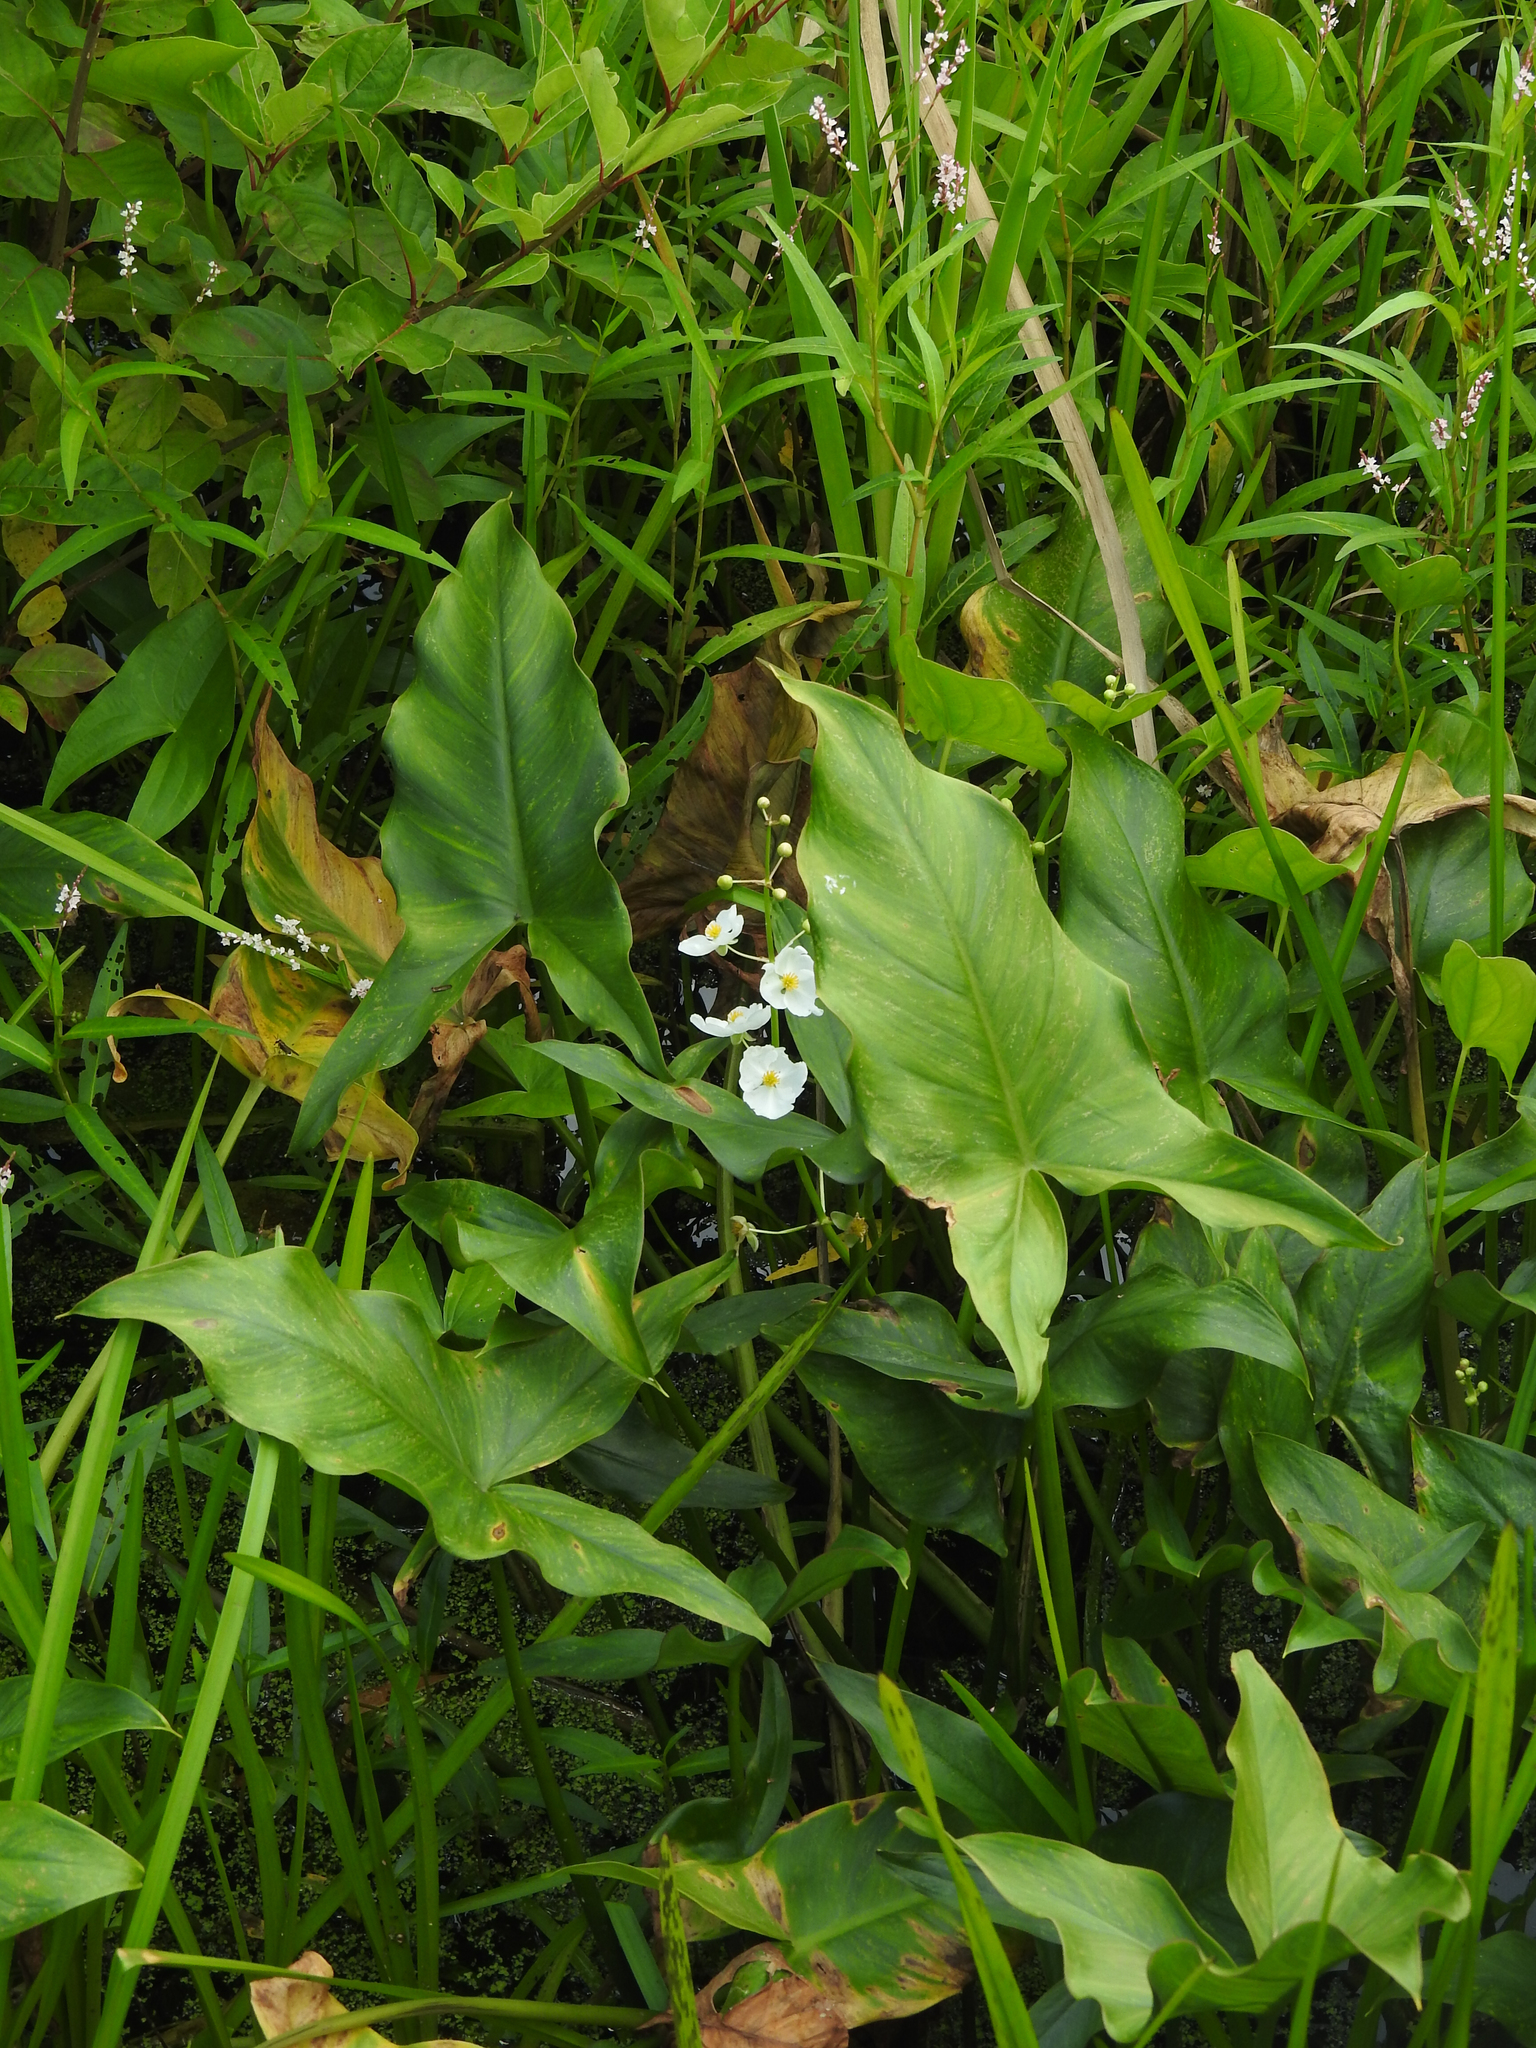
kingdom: Plantae
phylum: Tracheophyta
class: Liliopsida
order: Alismatales
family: Alismataceae
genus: Sagittaria
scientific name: Sagittaria latifolia
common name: Duck-potato
